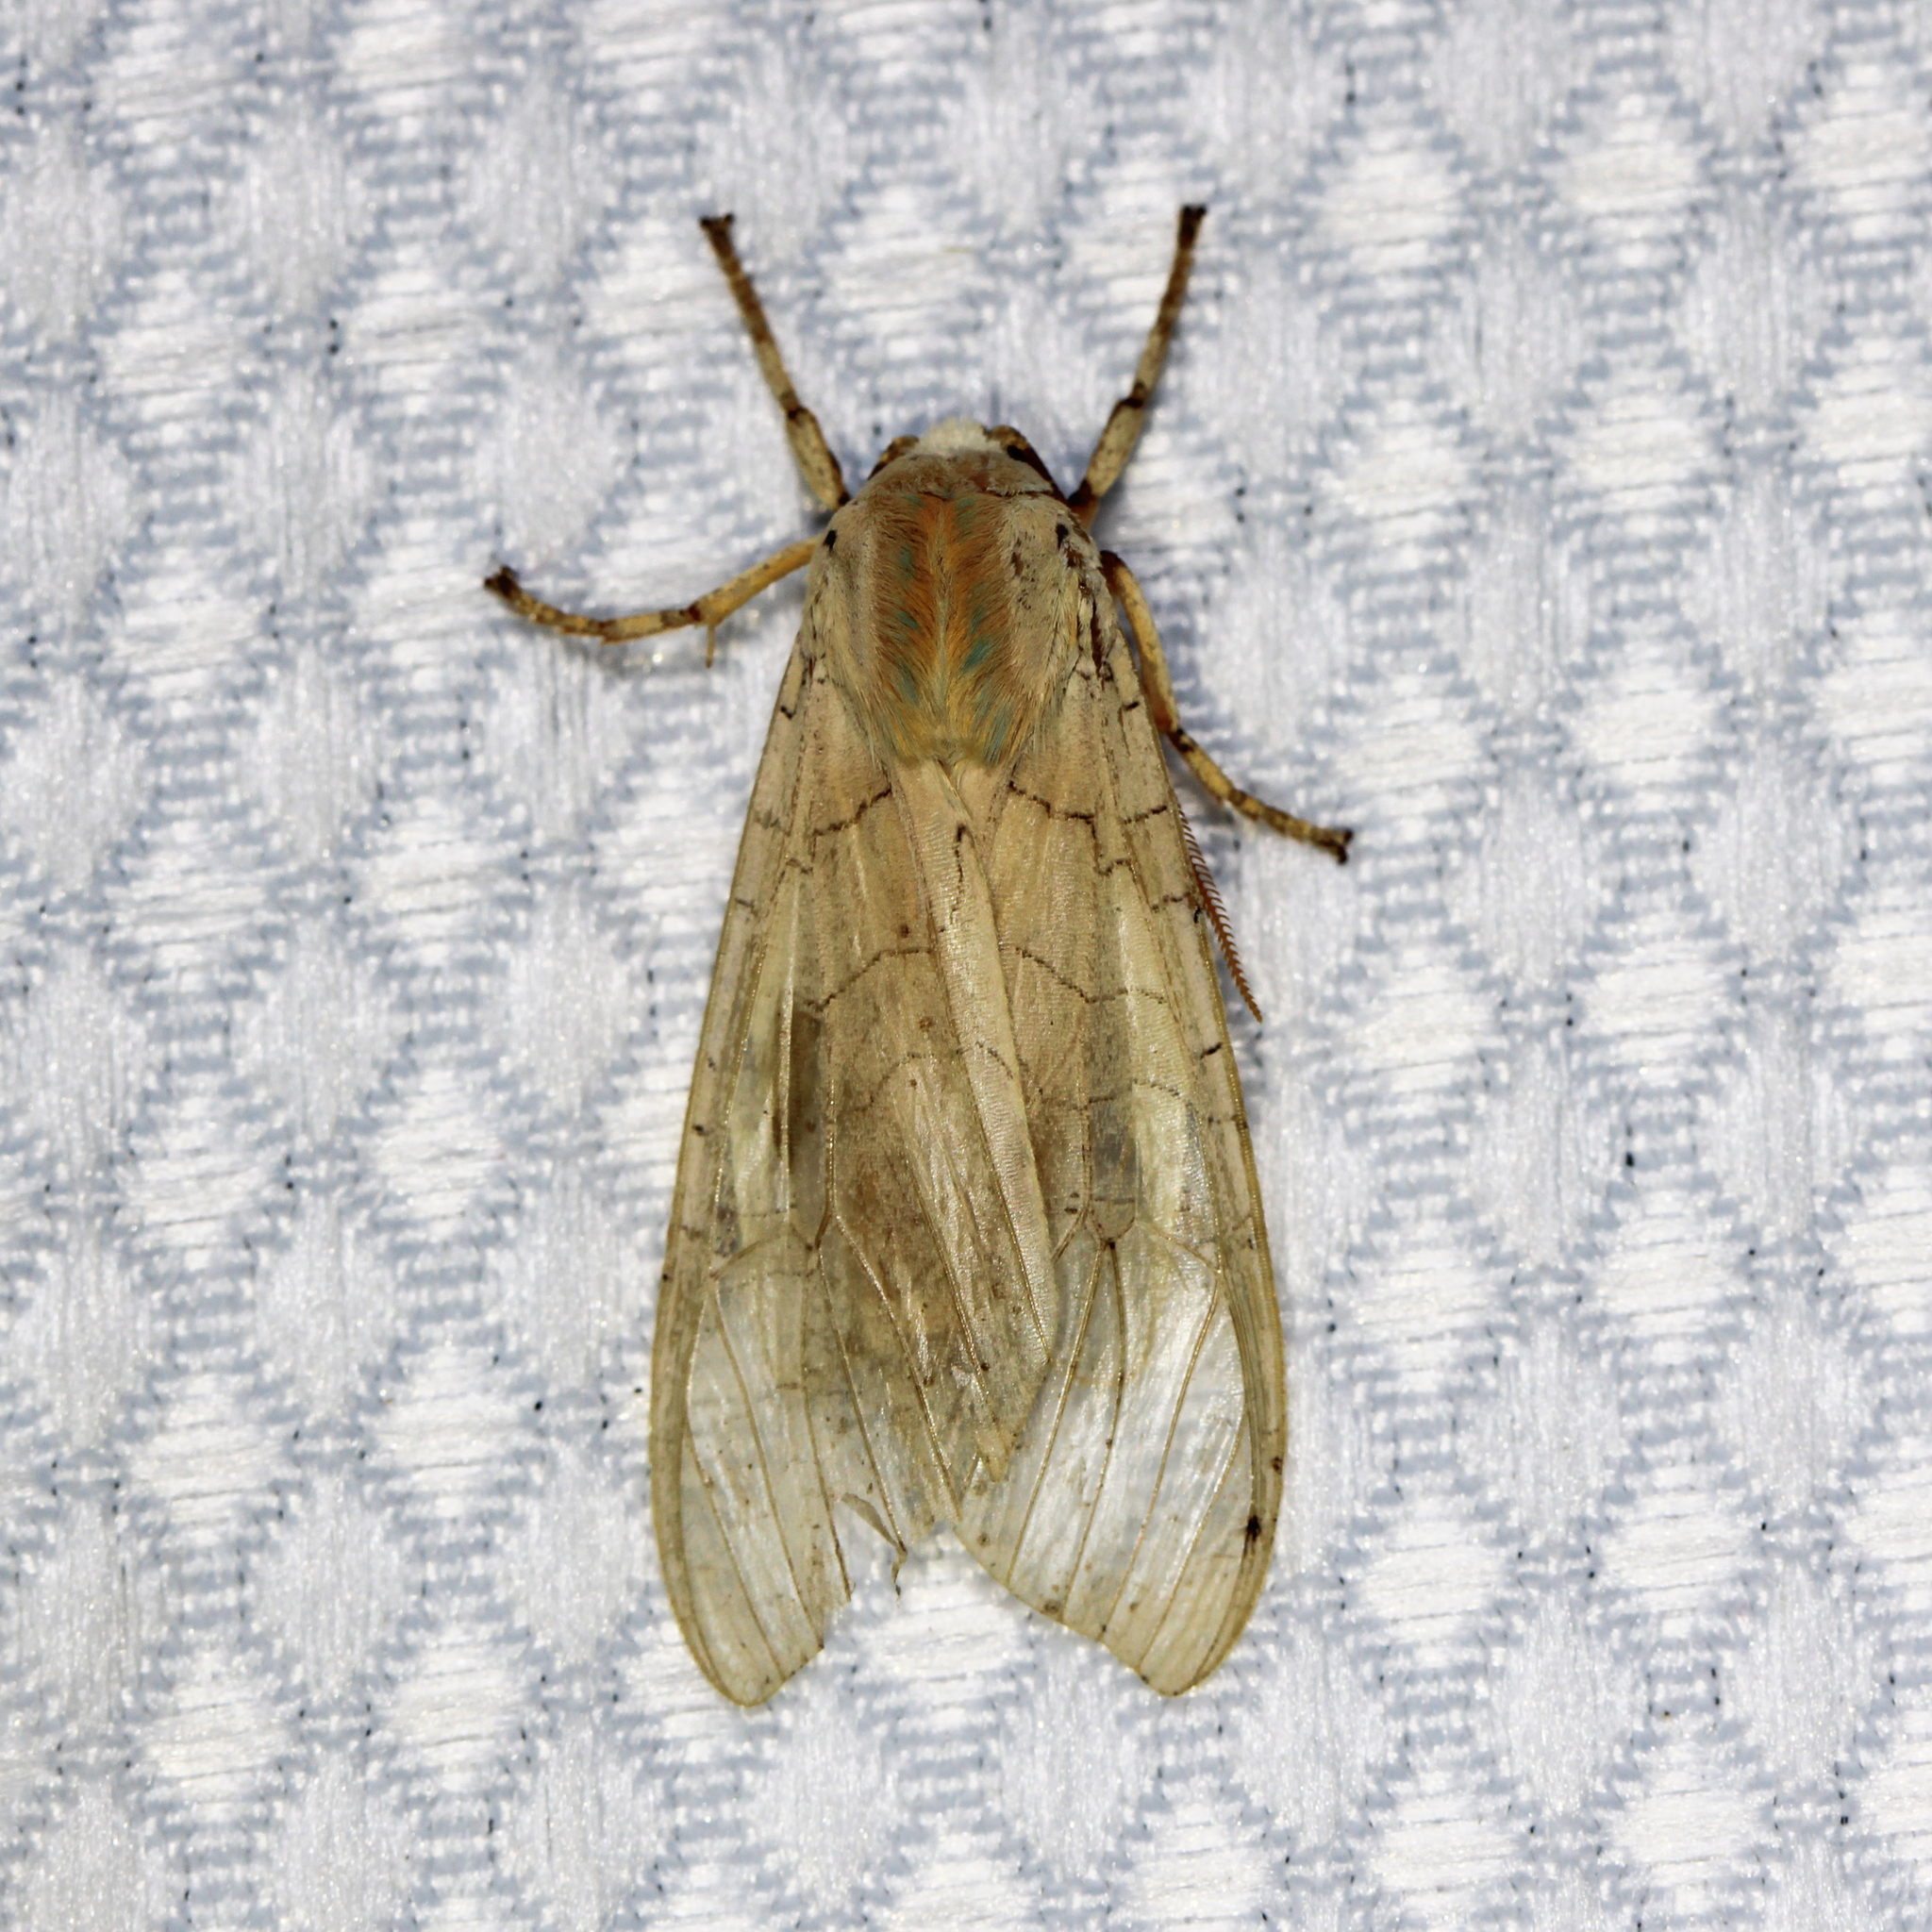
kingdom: Animalia
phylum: Arthropoda
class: Insecta
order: Lepidoptera
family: Erebidae
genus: Halysidota
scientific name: Halysidota
